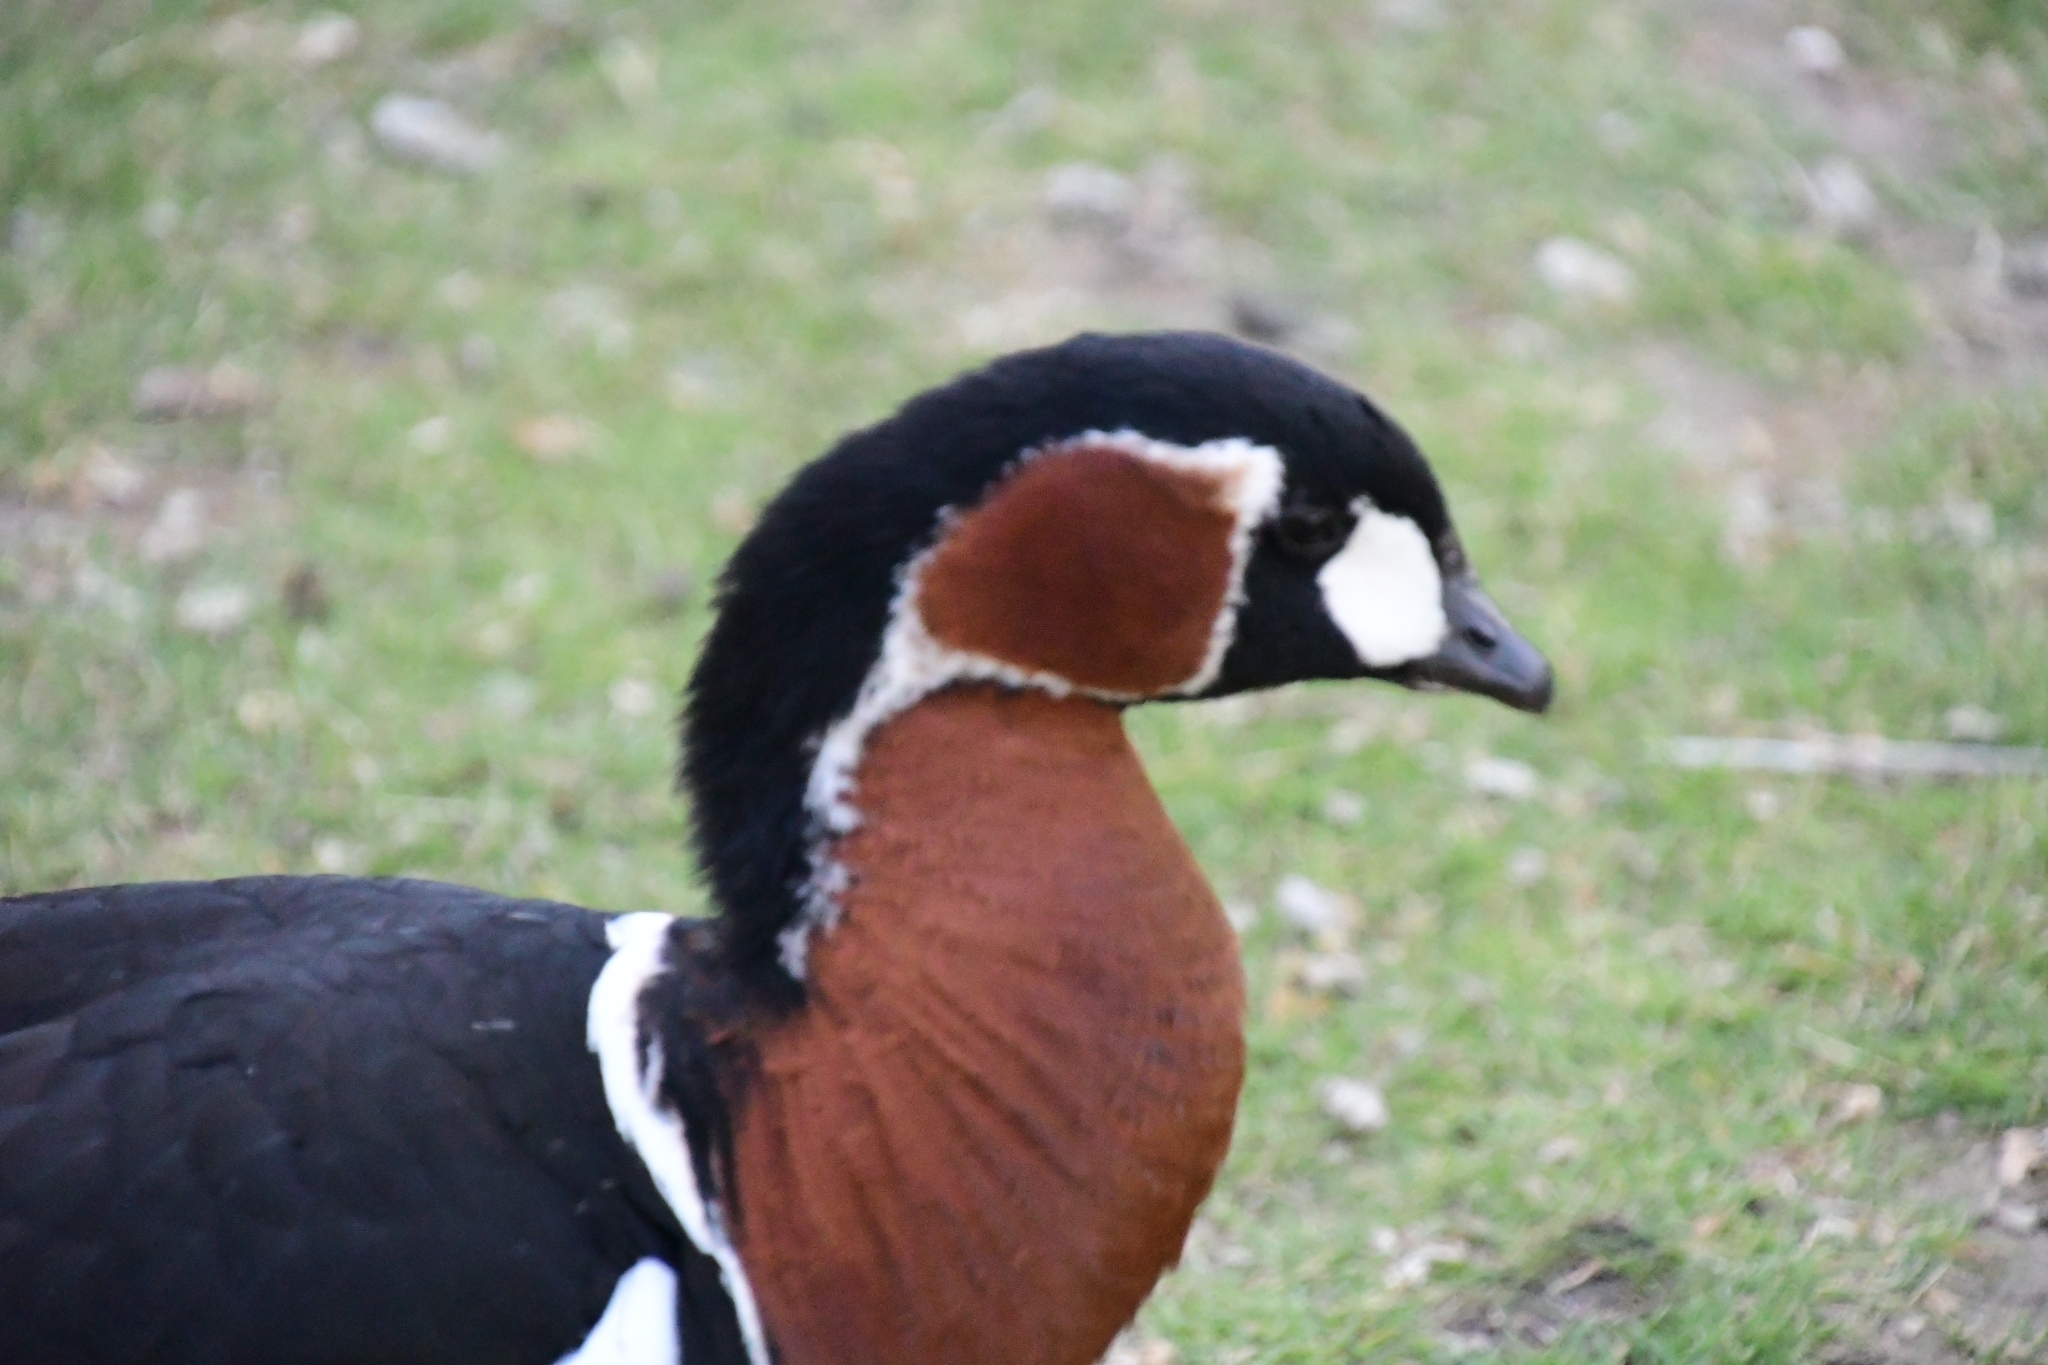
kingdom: Animalia
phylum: Chordata
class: Aves
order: Anseriformes
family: Anatidae
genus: Branta
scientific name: Branta ruficollis
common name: Red-breasted goose
